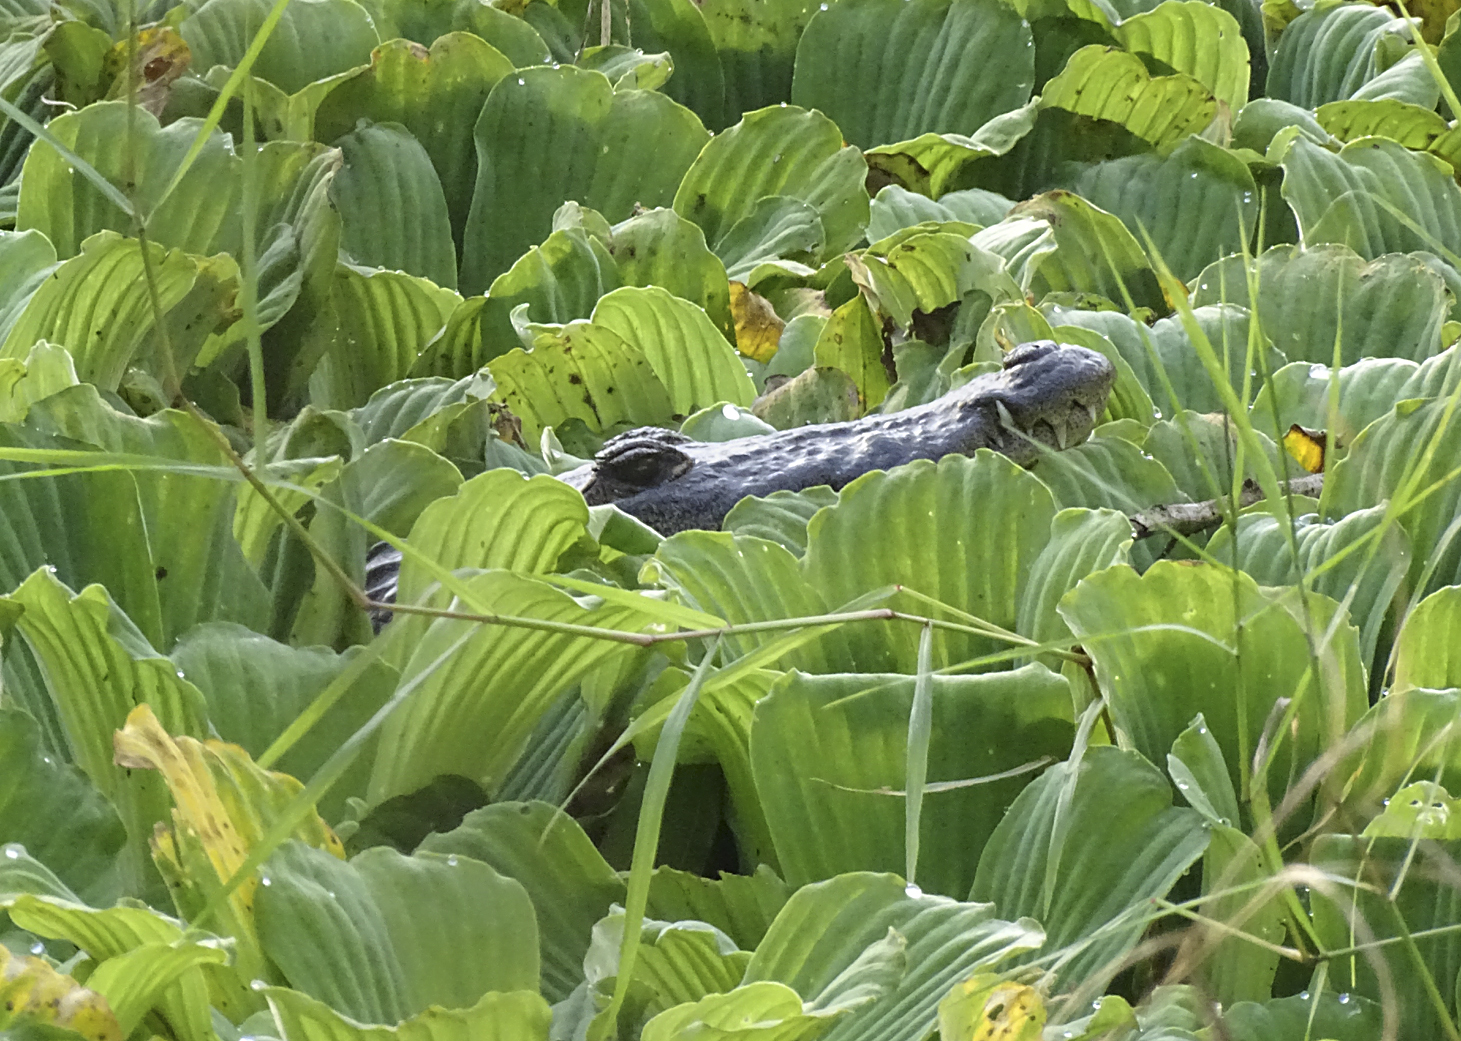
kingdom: Animalia
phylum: Chordata
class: Crocodylia
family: Crocodylidae
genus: Crocodylus
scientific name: Crocodylus moreletii
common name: Morelet's crocodile
